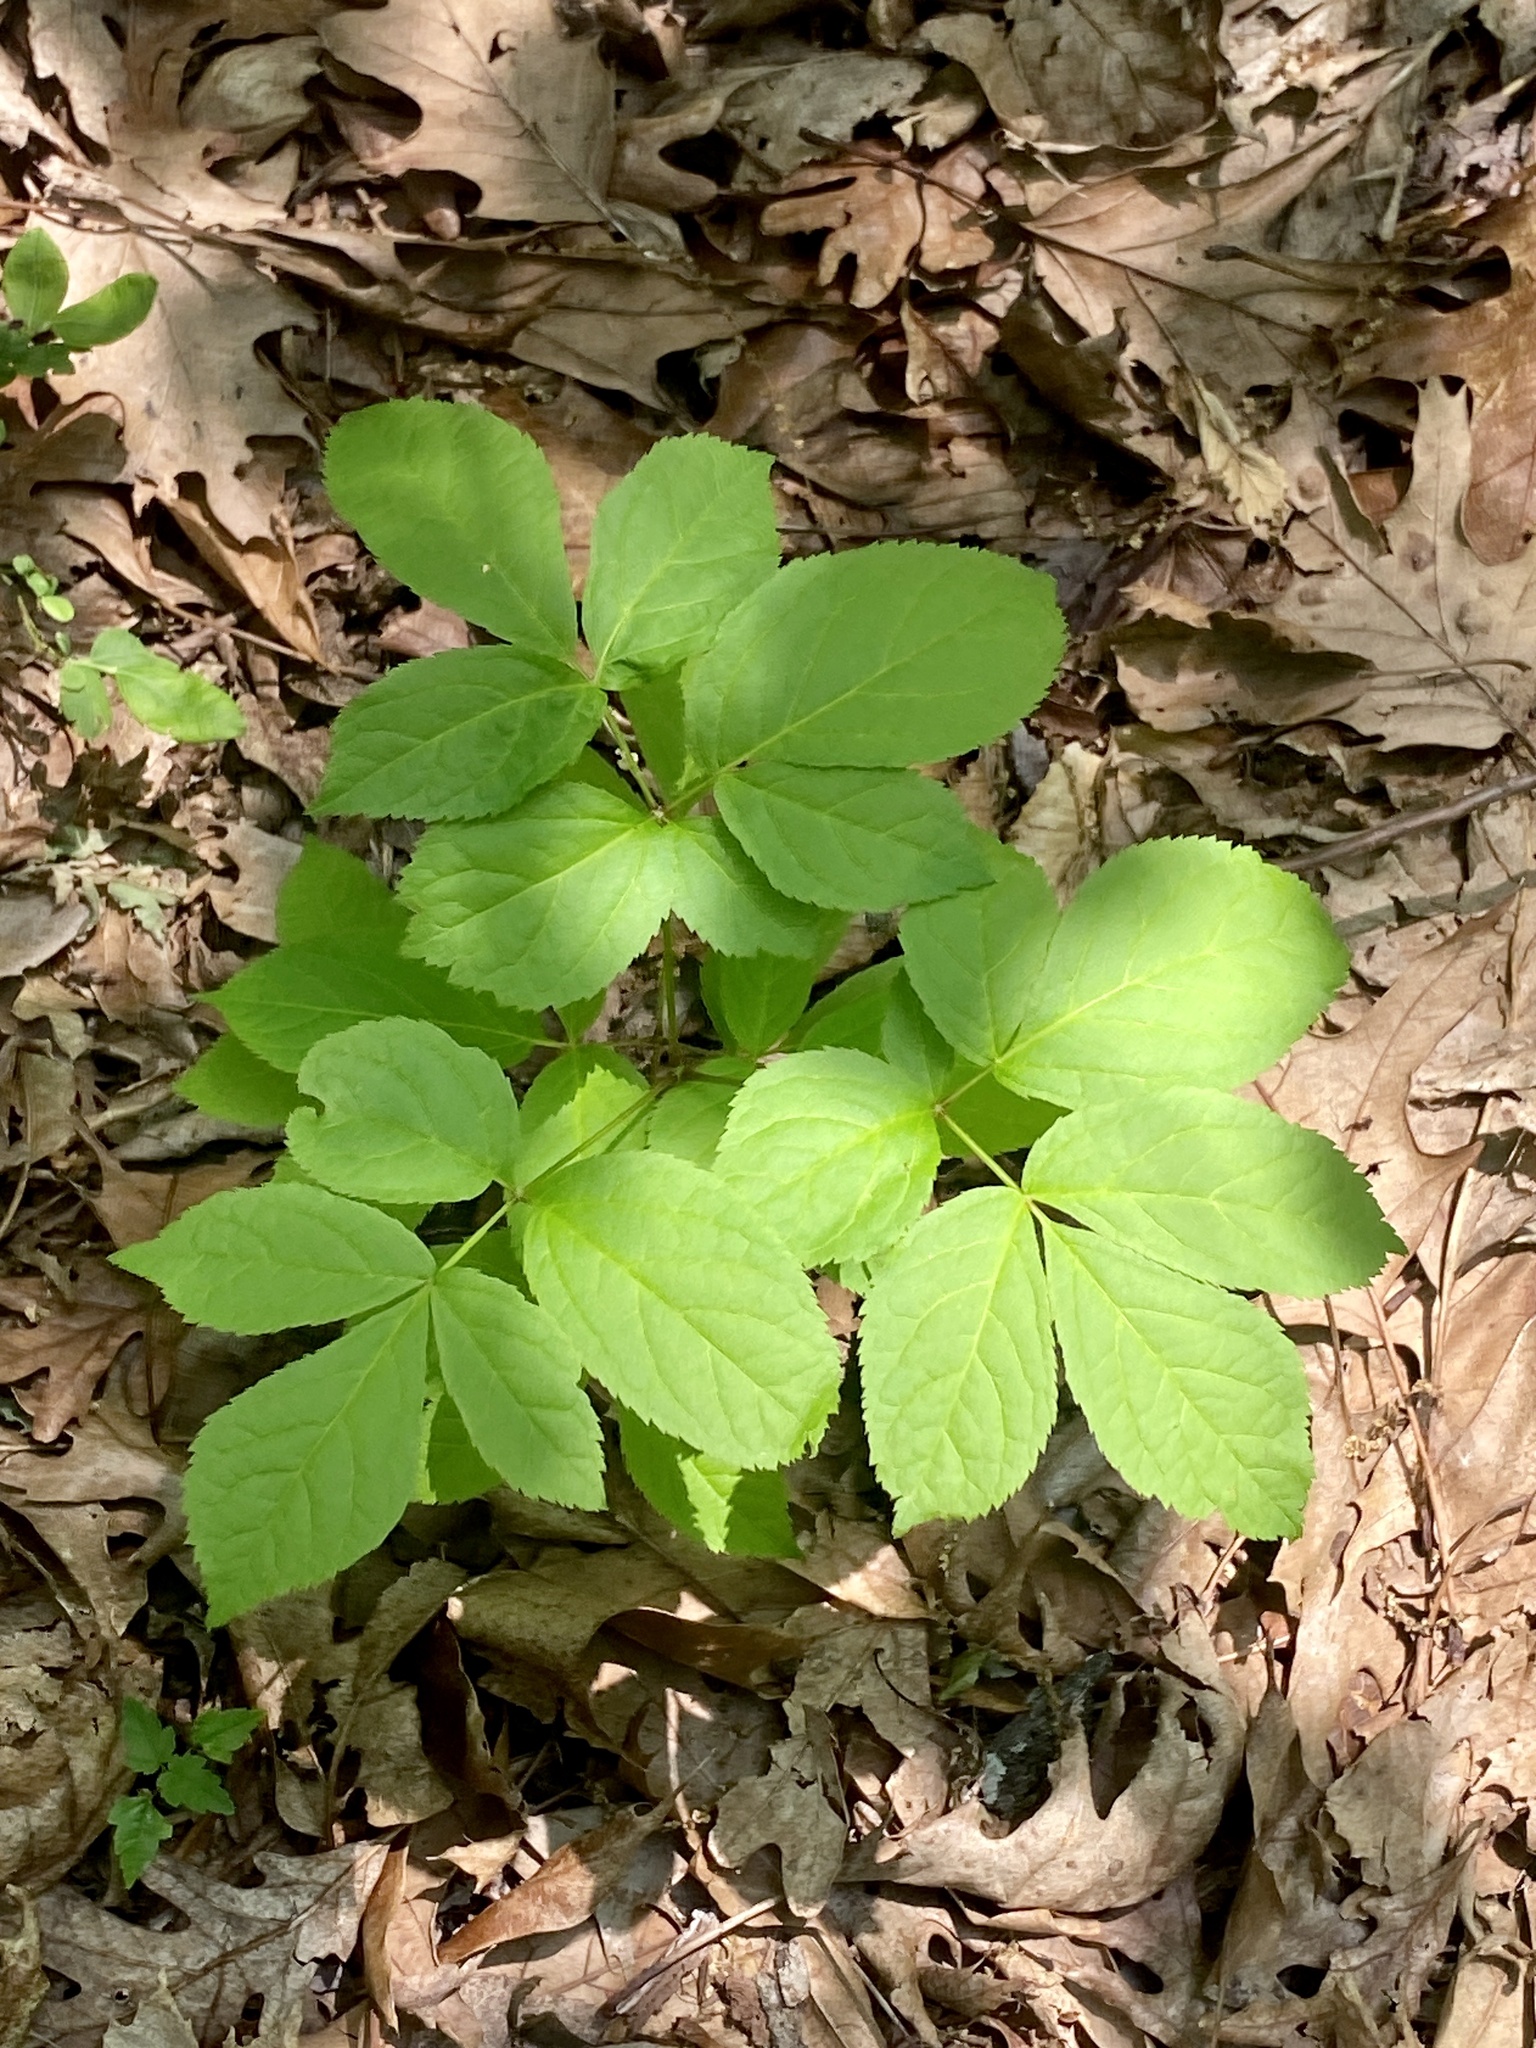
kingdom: Plantae
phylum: Tracheophyta
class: Magnoliopsida
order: Apiales
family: Araliaceae
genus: Aralia
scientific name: Aralia nudicaulis
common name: Wild sarsaparilla
